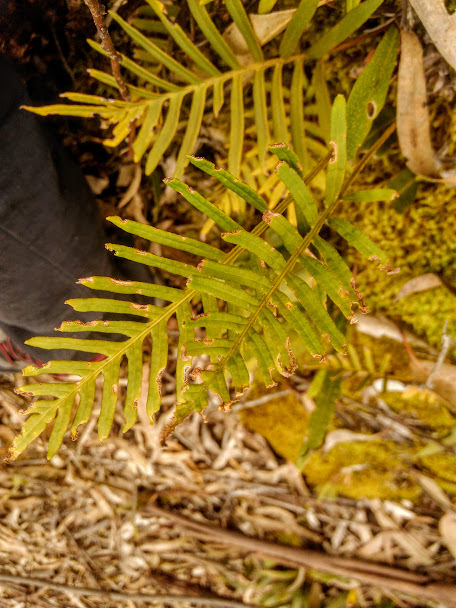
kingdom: Plantae
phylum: Tracheophyta
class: Polypodiopsida
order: Polypodiales
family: Polypodiaceae
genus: Pleopeltis
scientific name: Pleopeltis orientalis
